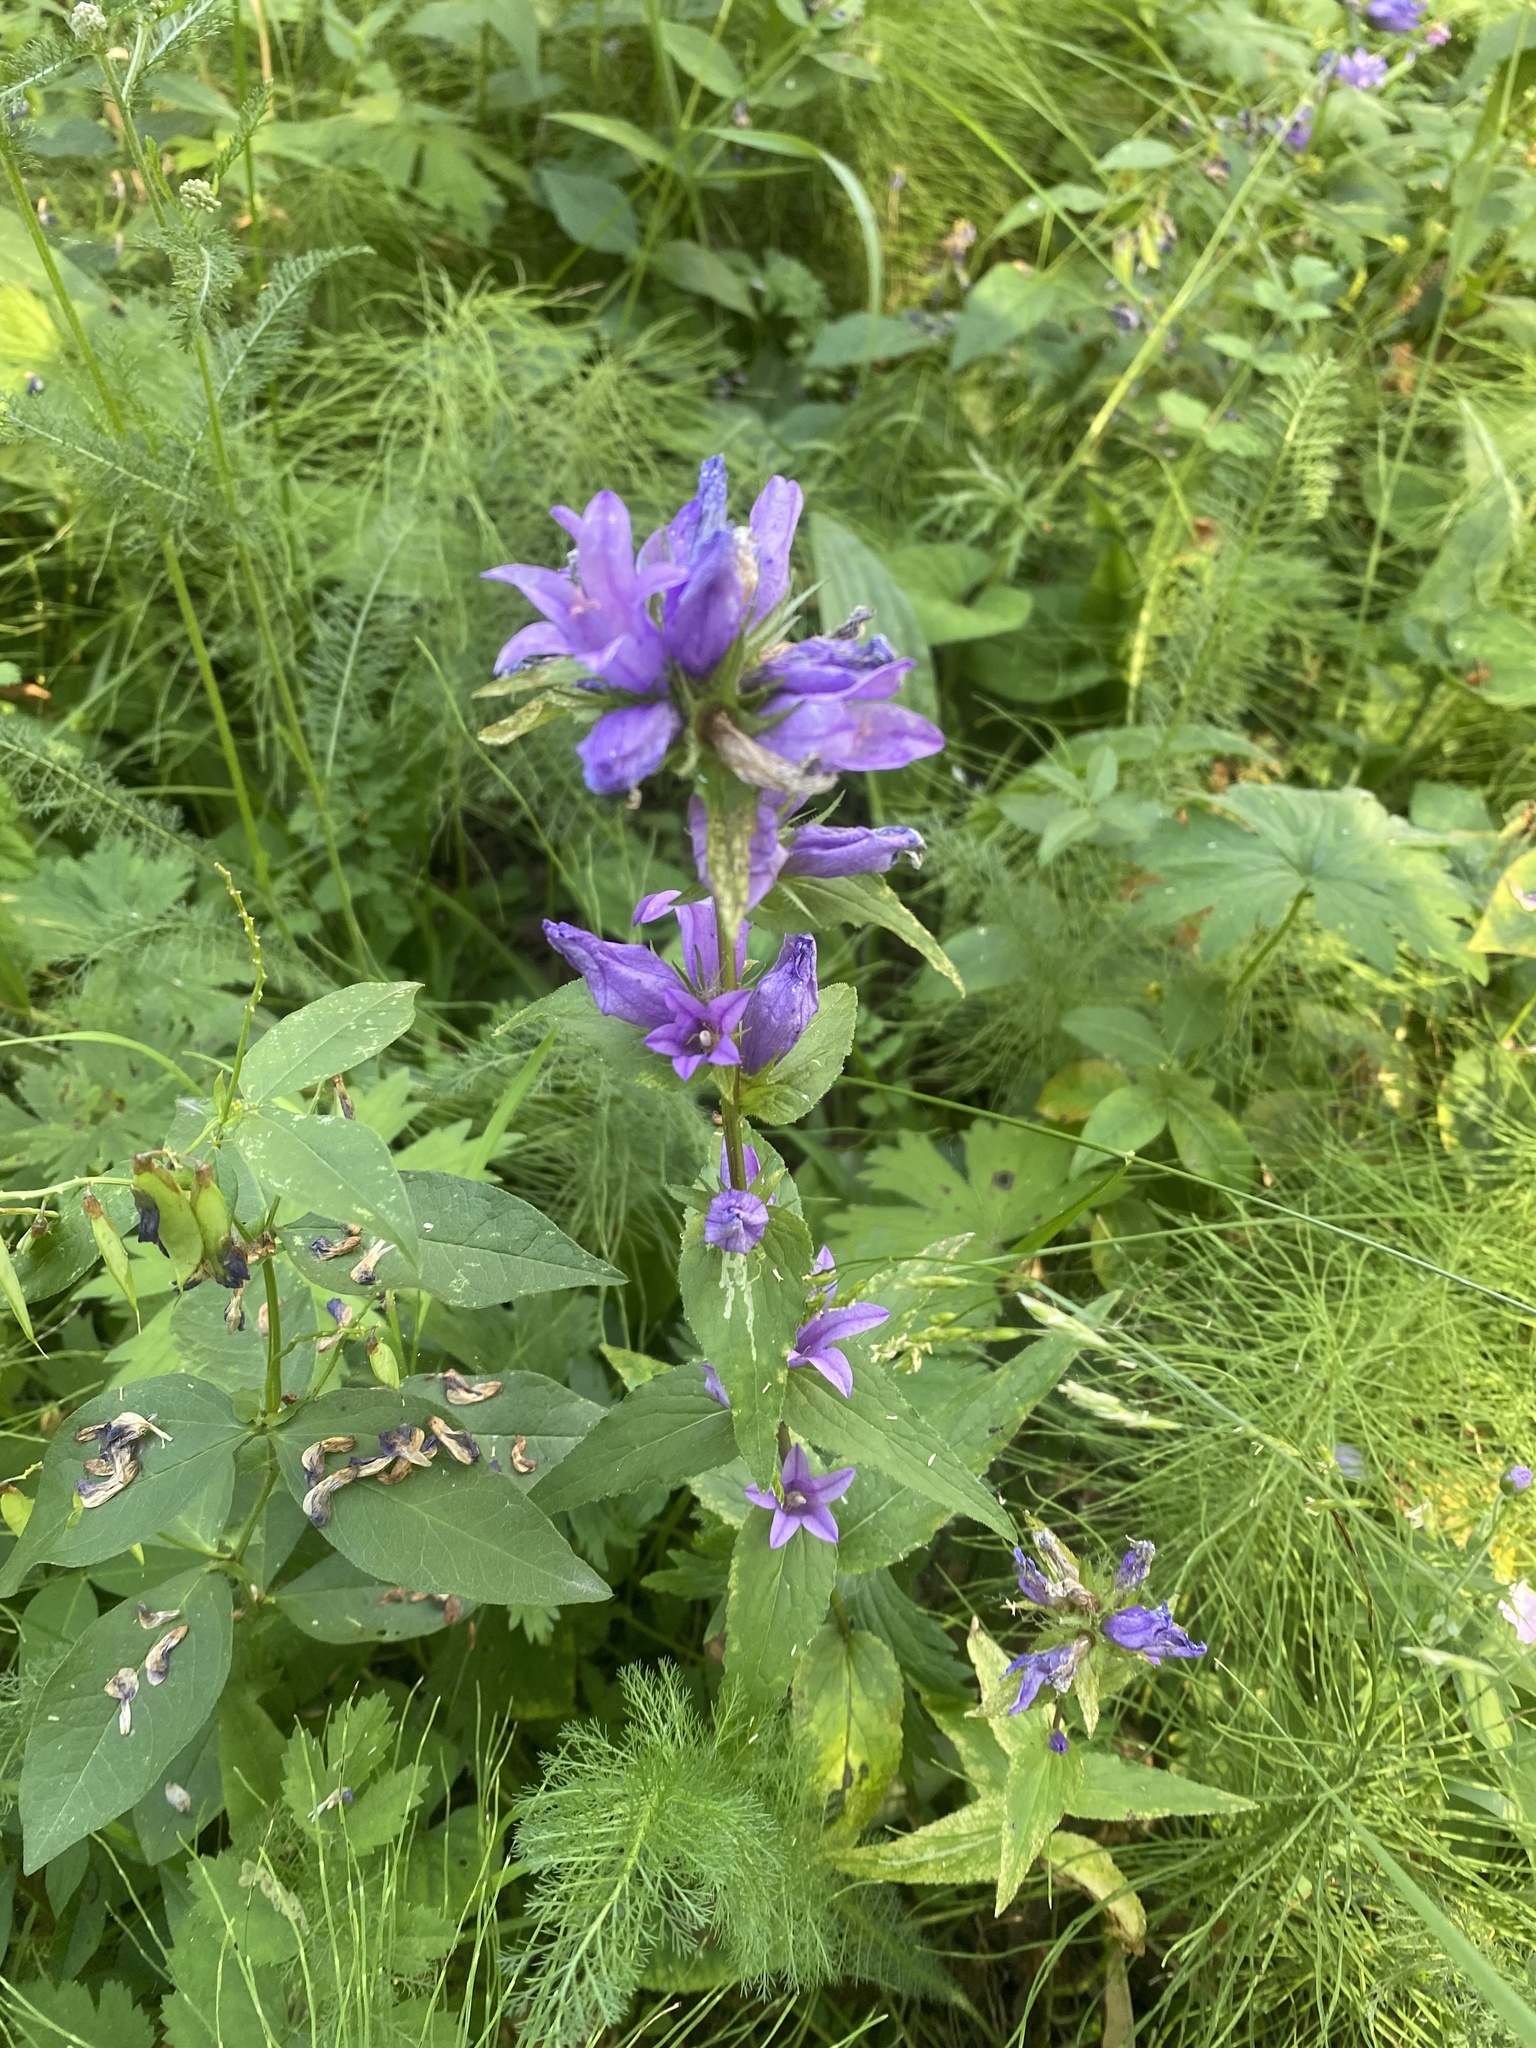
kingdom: Plantae
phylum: Tracheophyta
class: Magnoliopsida
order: Asterales
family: Campanulaceae
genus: Campanula
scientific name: Campanula glomerata
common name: Clustered bellflower
